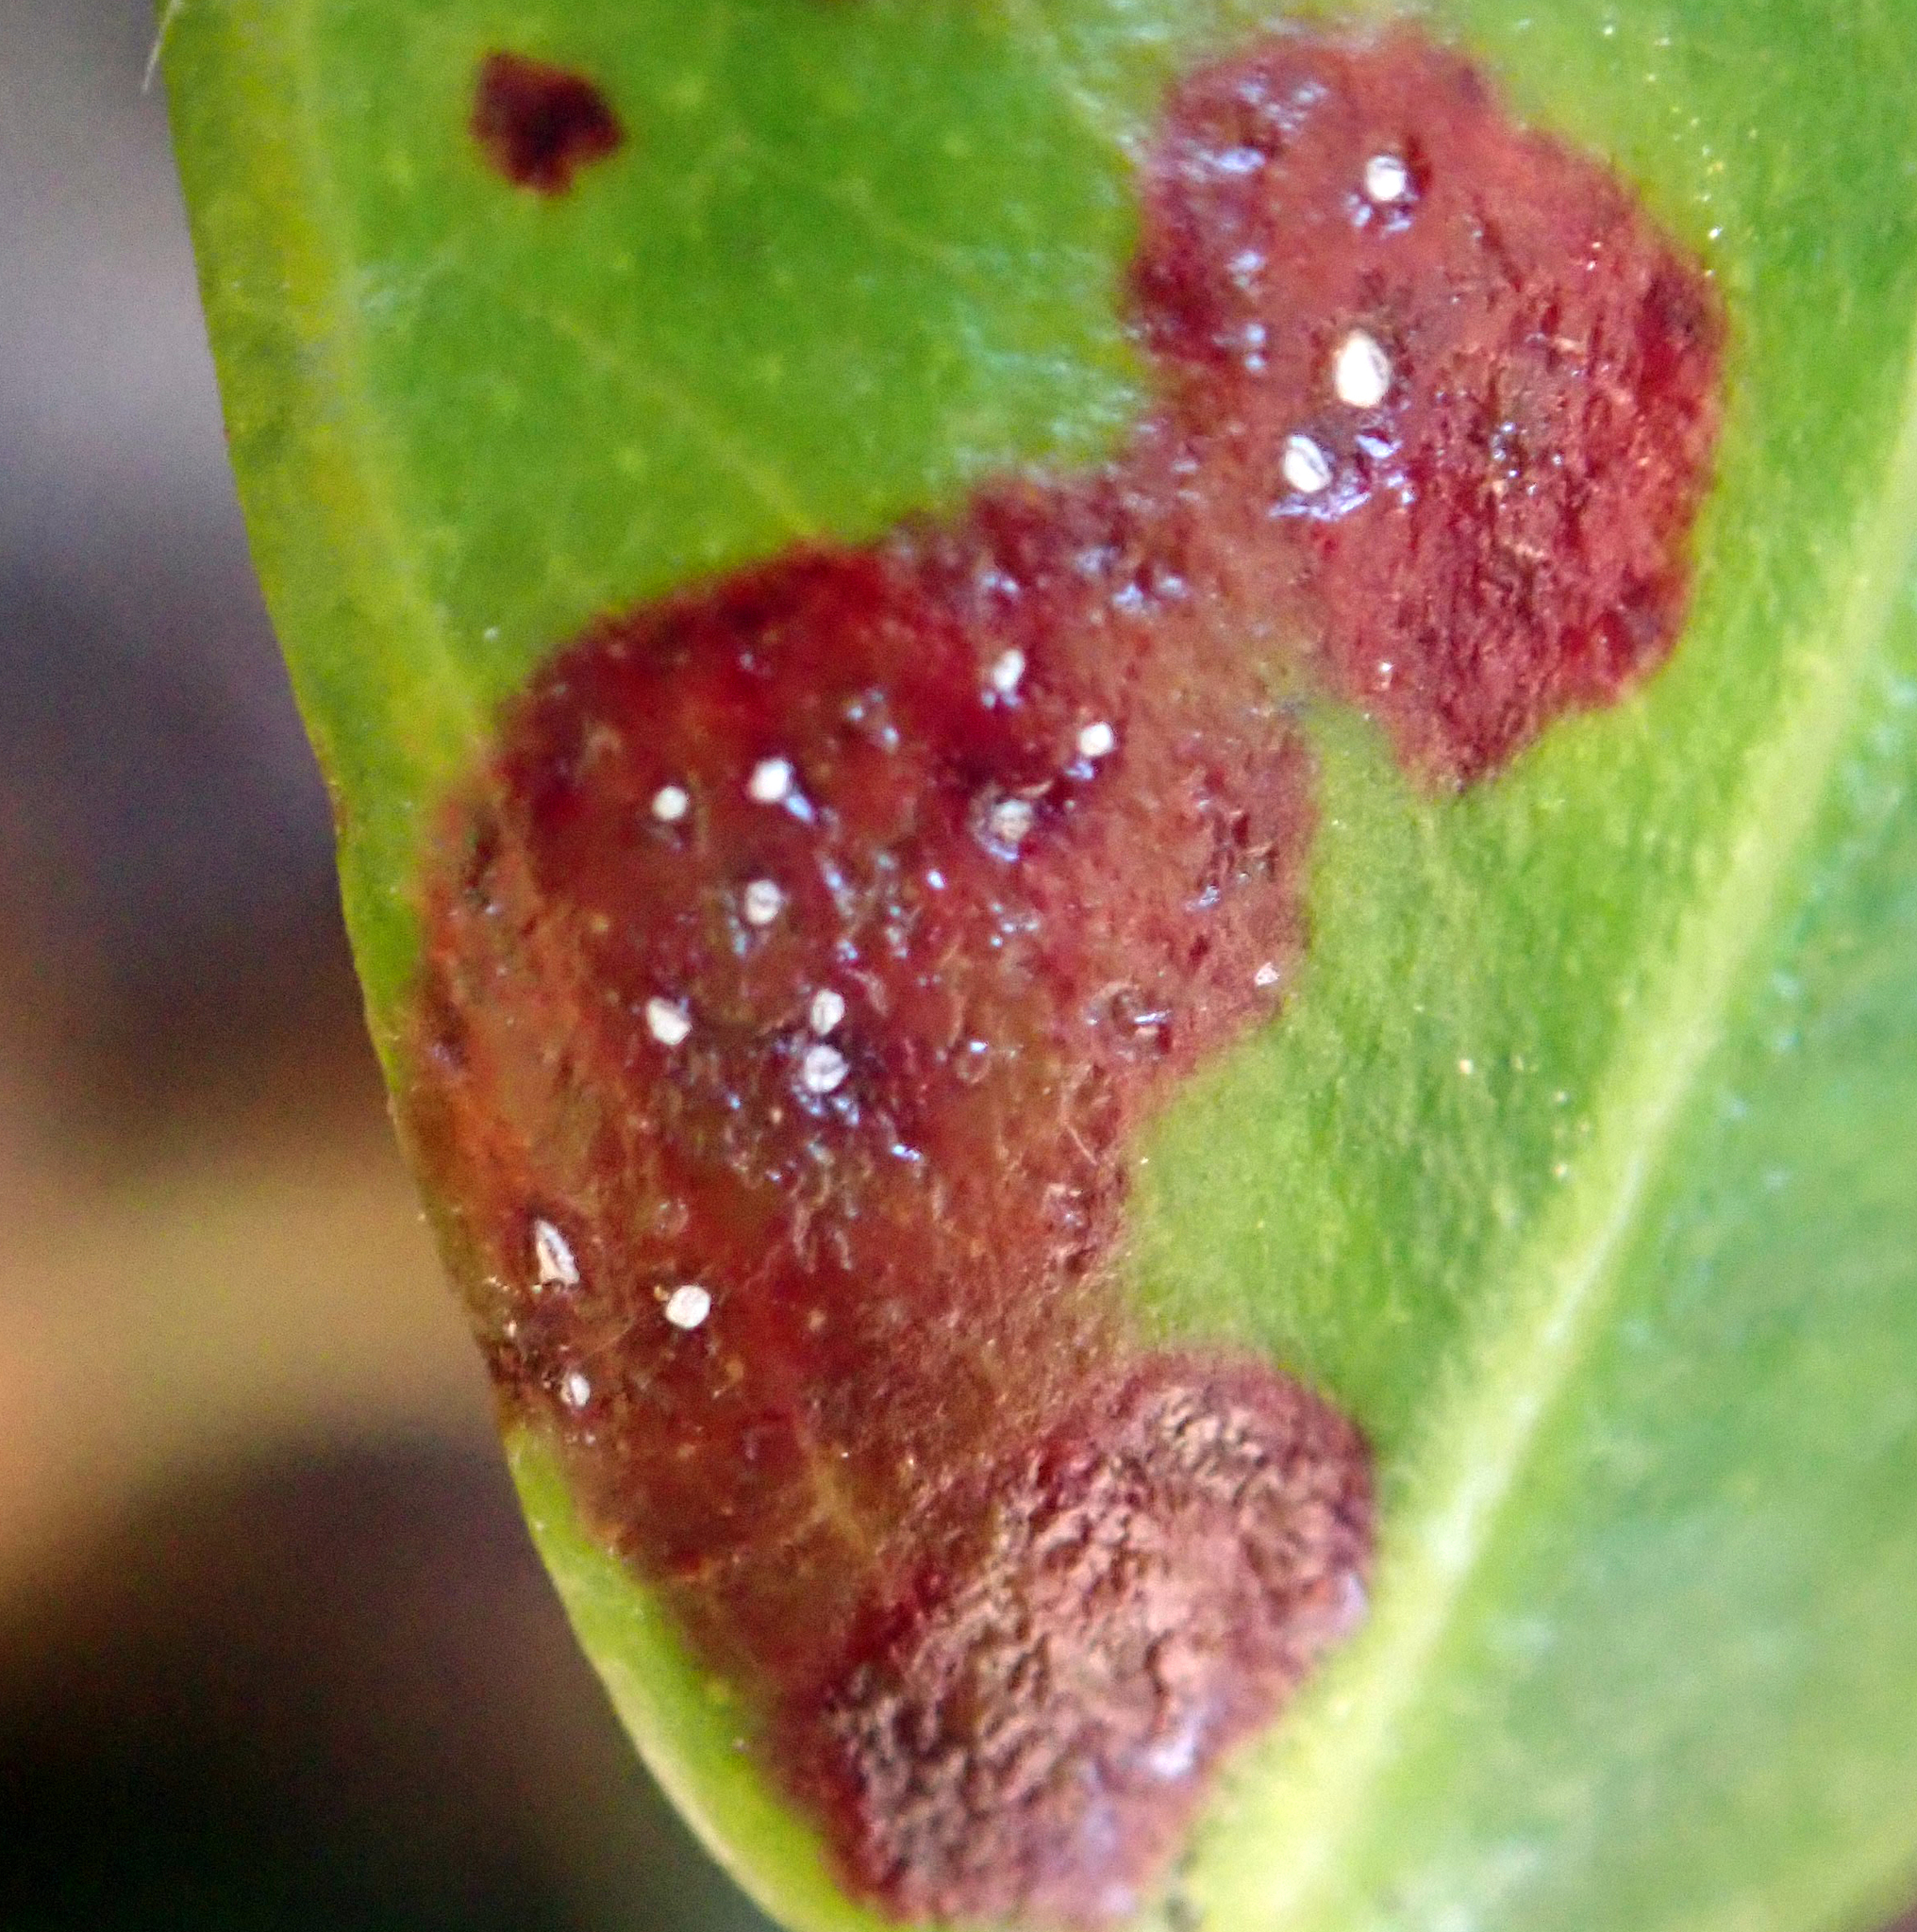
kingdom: Fungi
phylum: Basidiomycota
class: Pucciniomycetes
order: Pucciniales
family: Sphaerophragmiaceae
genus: Austropuccinia
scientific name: Austropuccinia psidii
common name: Myrtle rust
